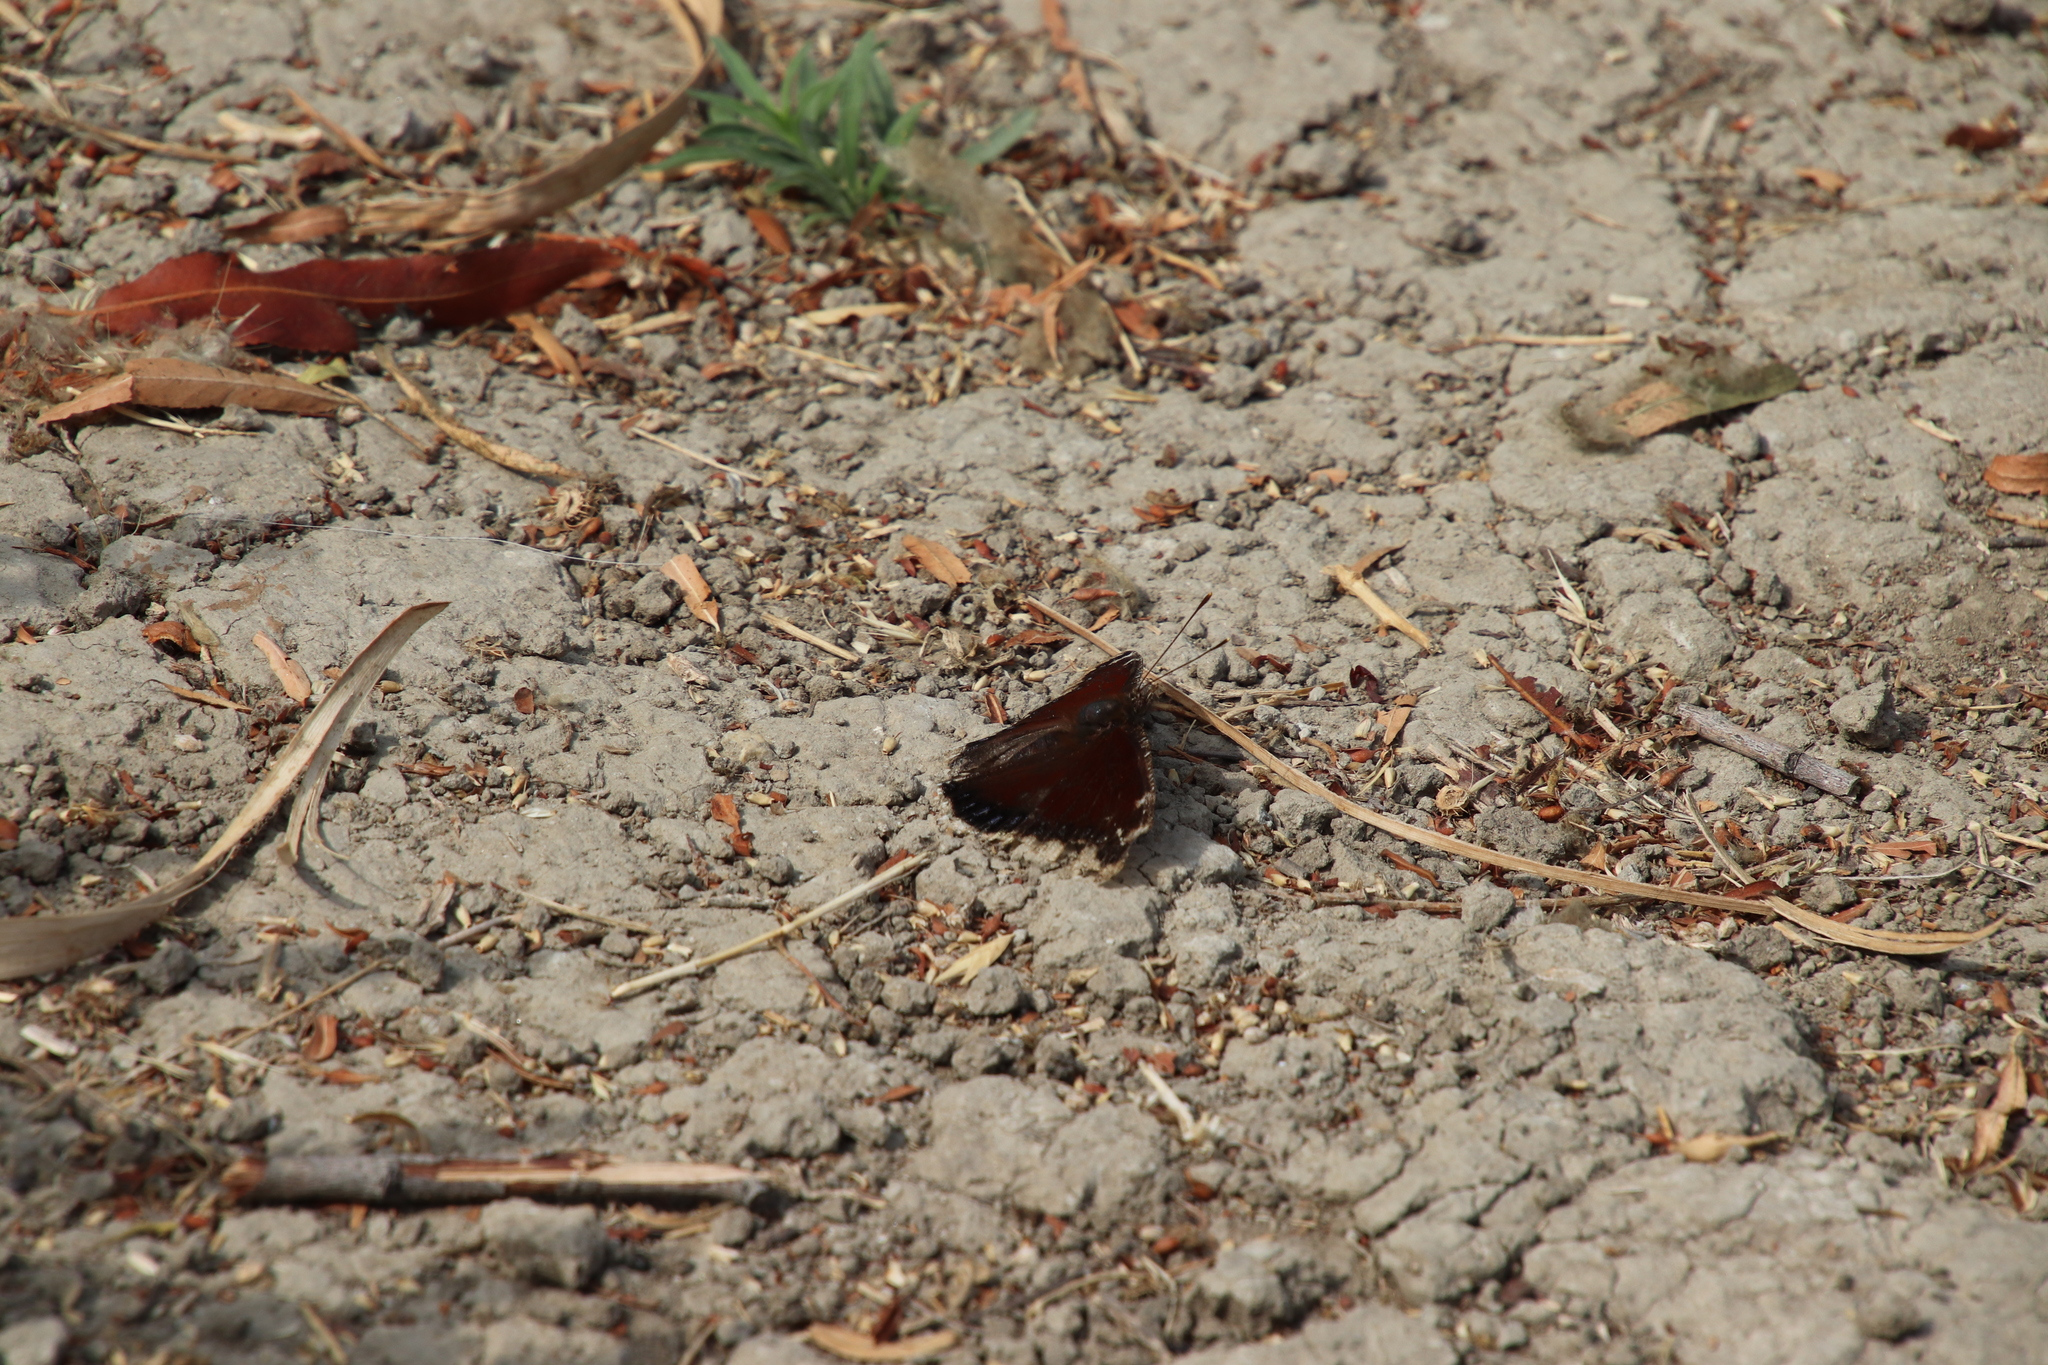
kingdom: Animalia
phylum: Arthropoda
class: Insecta
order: Lepidoptera
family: Nymphalidae
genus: Nymphalis
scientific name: Nymphalis antiopa
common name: Camberwell beauty
